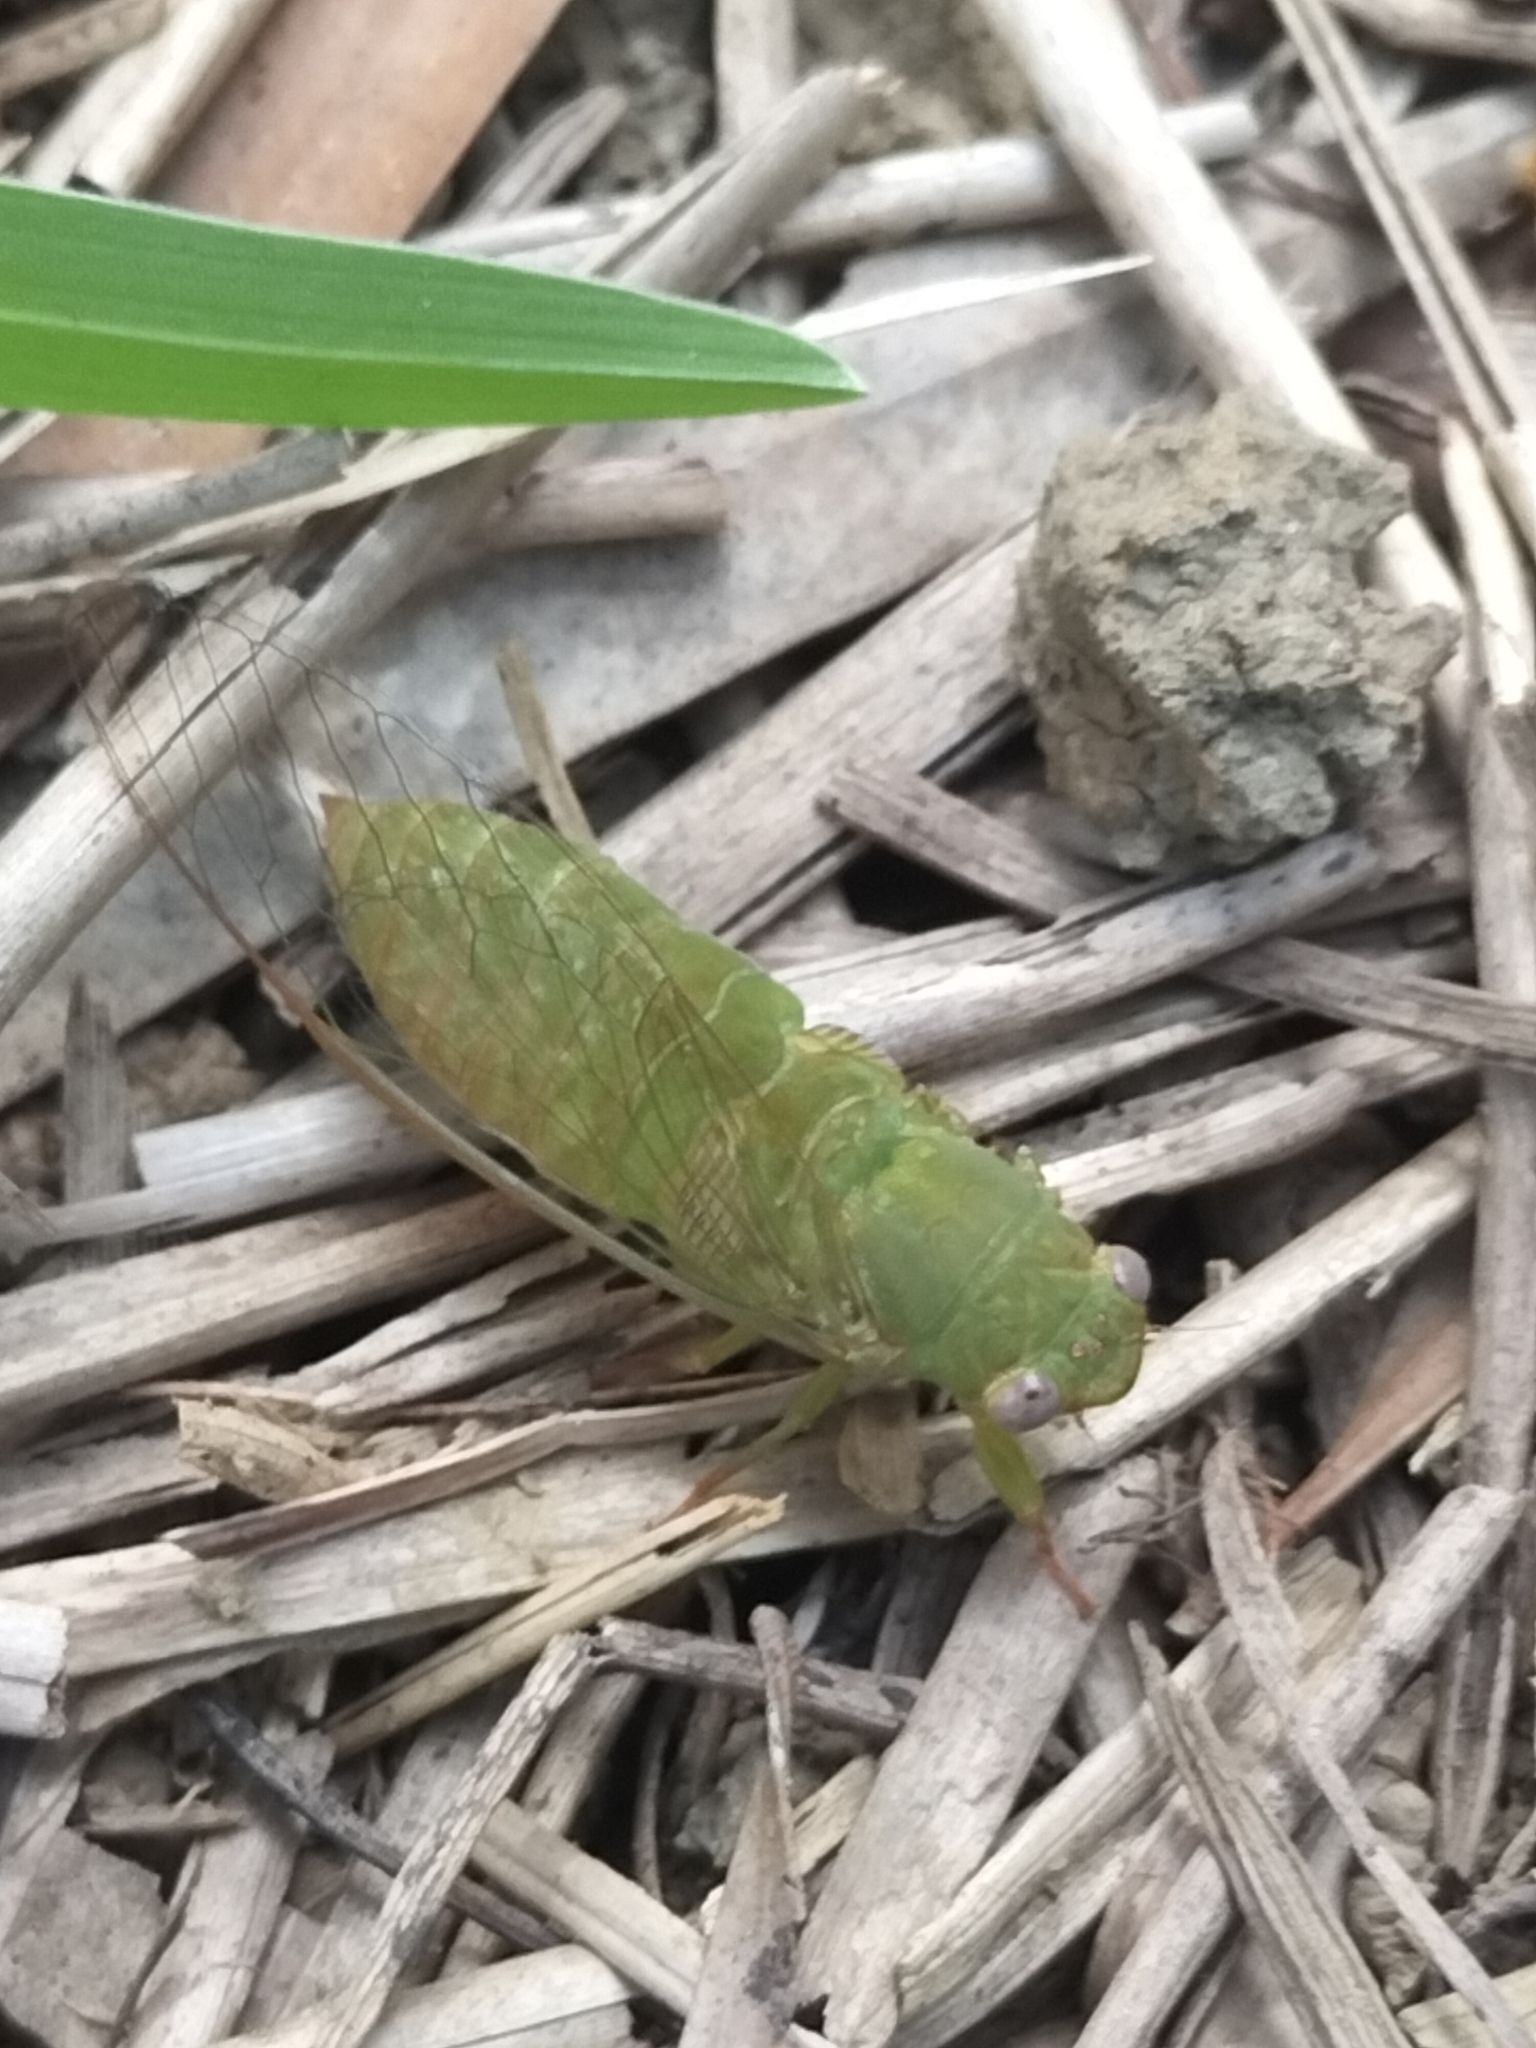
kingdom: Animalia
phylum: Arthropoda
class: Insecta
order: Hemiptera
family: Cicadidae
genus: Gymnotympana
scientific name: Gymnotympana varicolor
